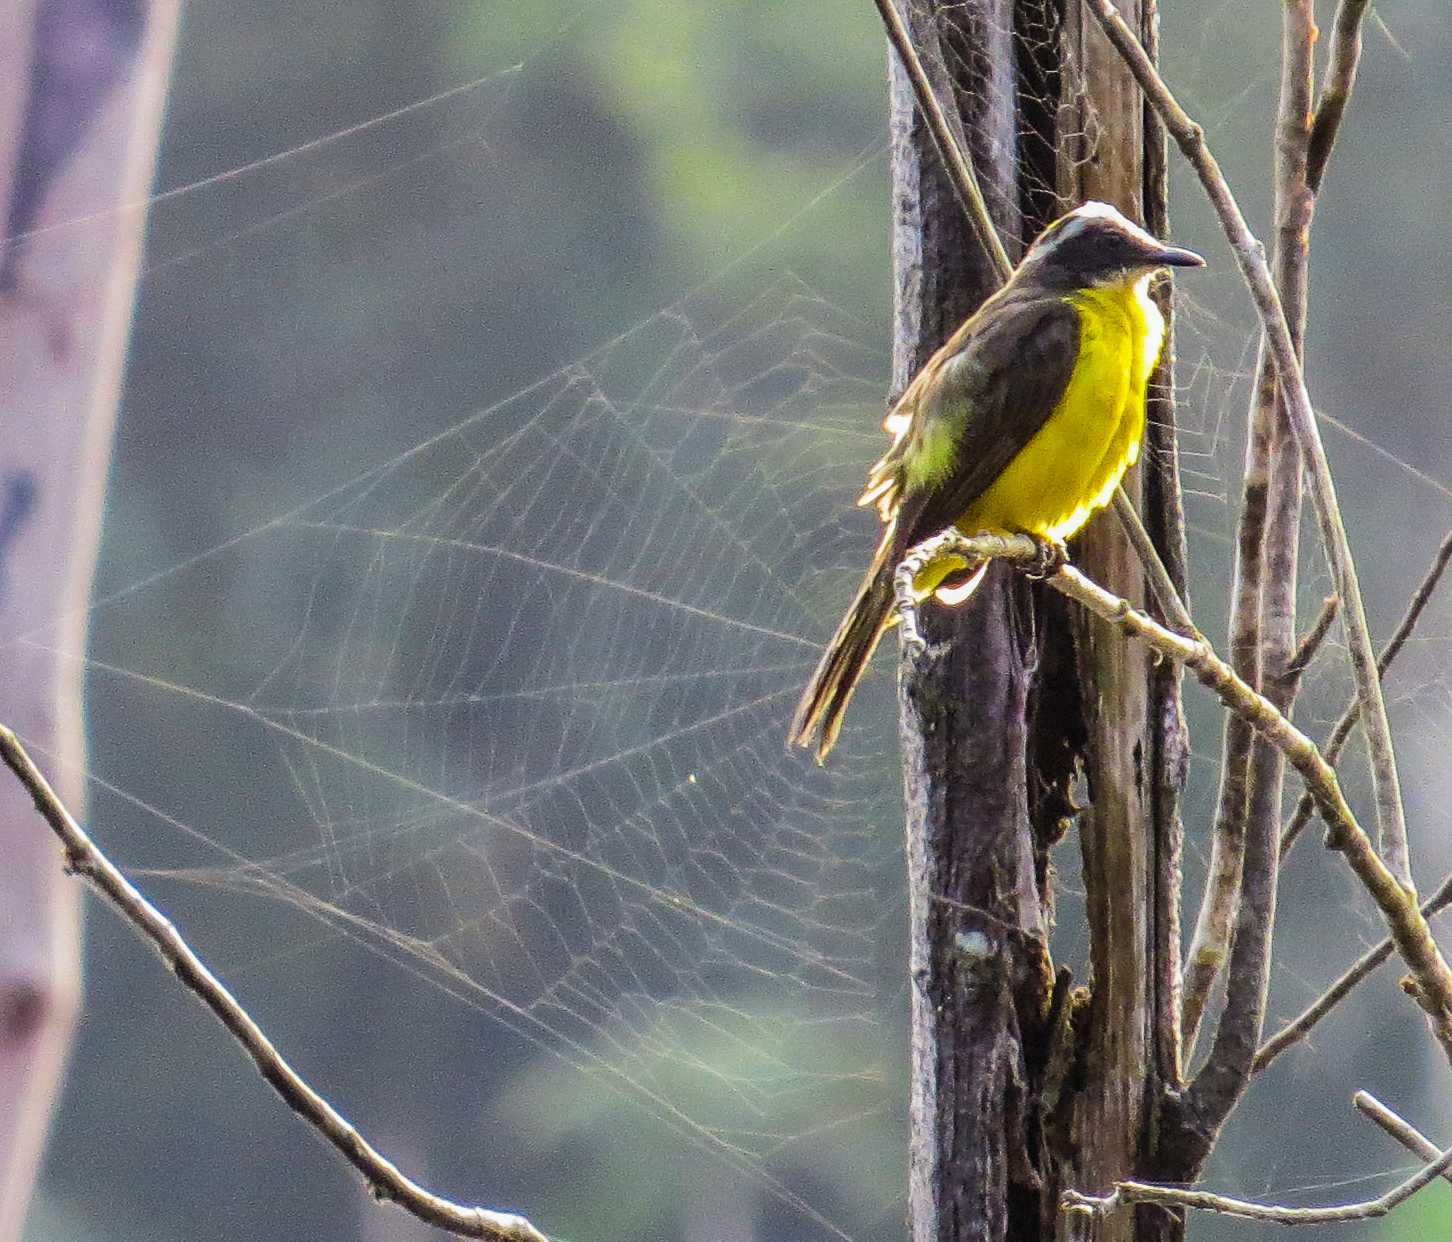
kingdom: Animalia
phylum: Chordata
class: Aves
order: Passeriformes
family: Tyrannidae
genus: Myiozetetes
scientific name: Myiozetetes cayanensis
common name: Rusty-margined flycatcher
